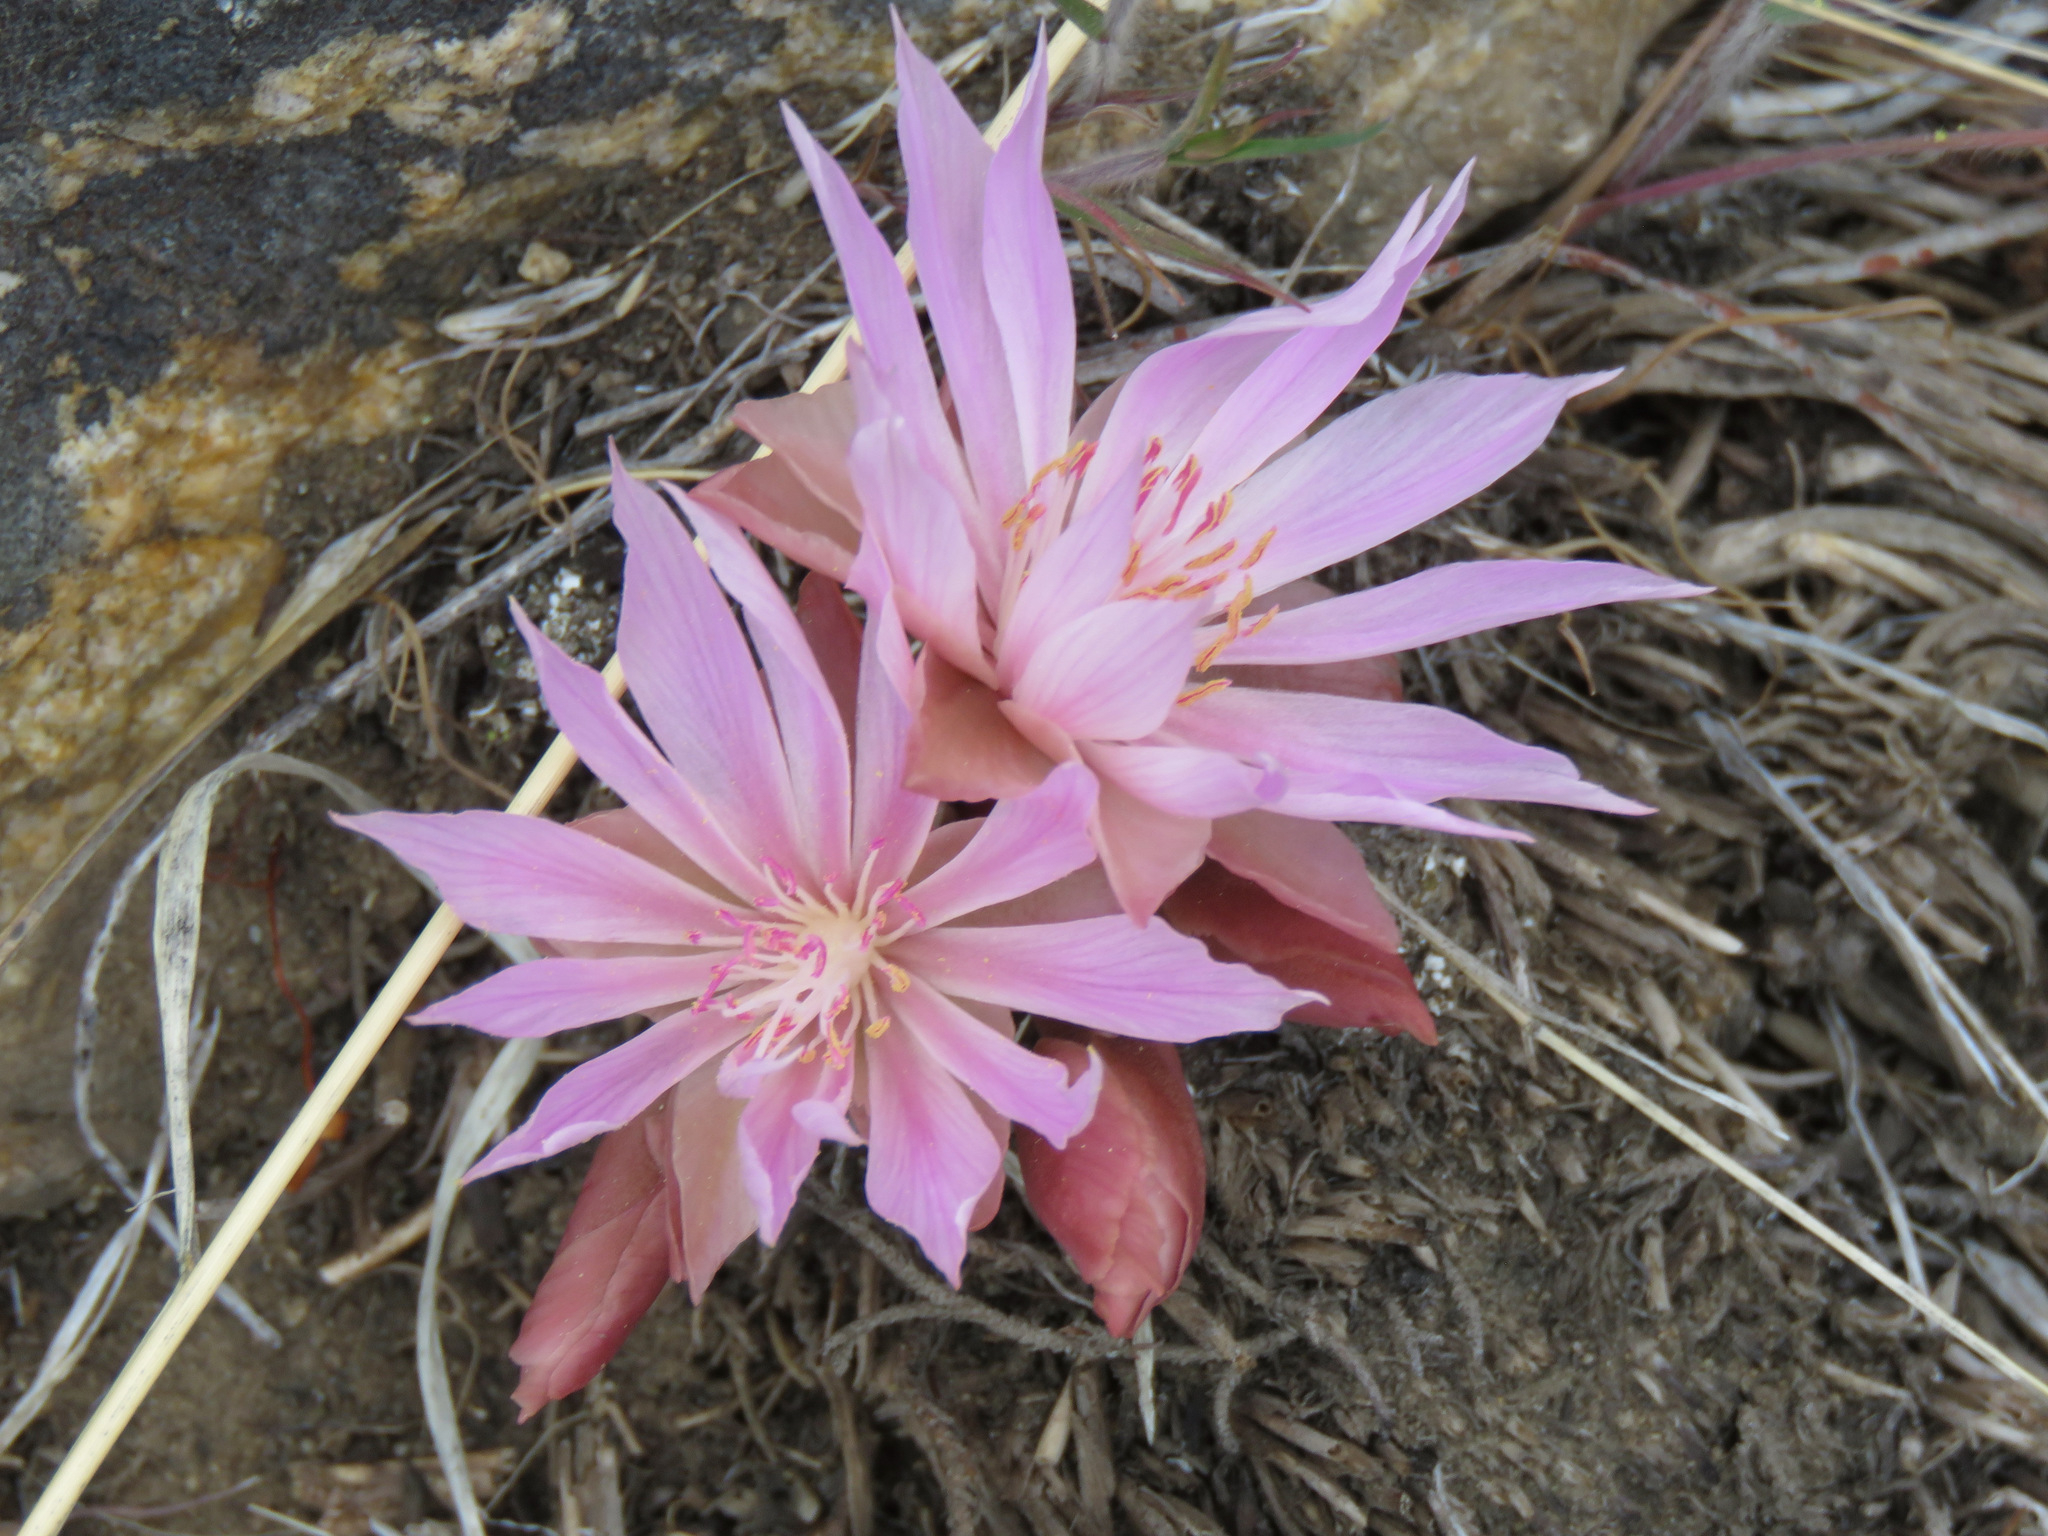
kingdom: Plantae
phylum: Tracheophyta
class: Magnoliopsida
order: Caryophyllales
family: Montiaceae
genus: Lewisia
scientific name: Lewisia rediviva
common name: Bitter-root
